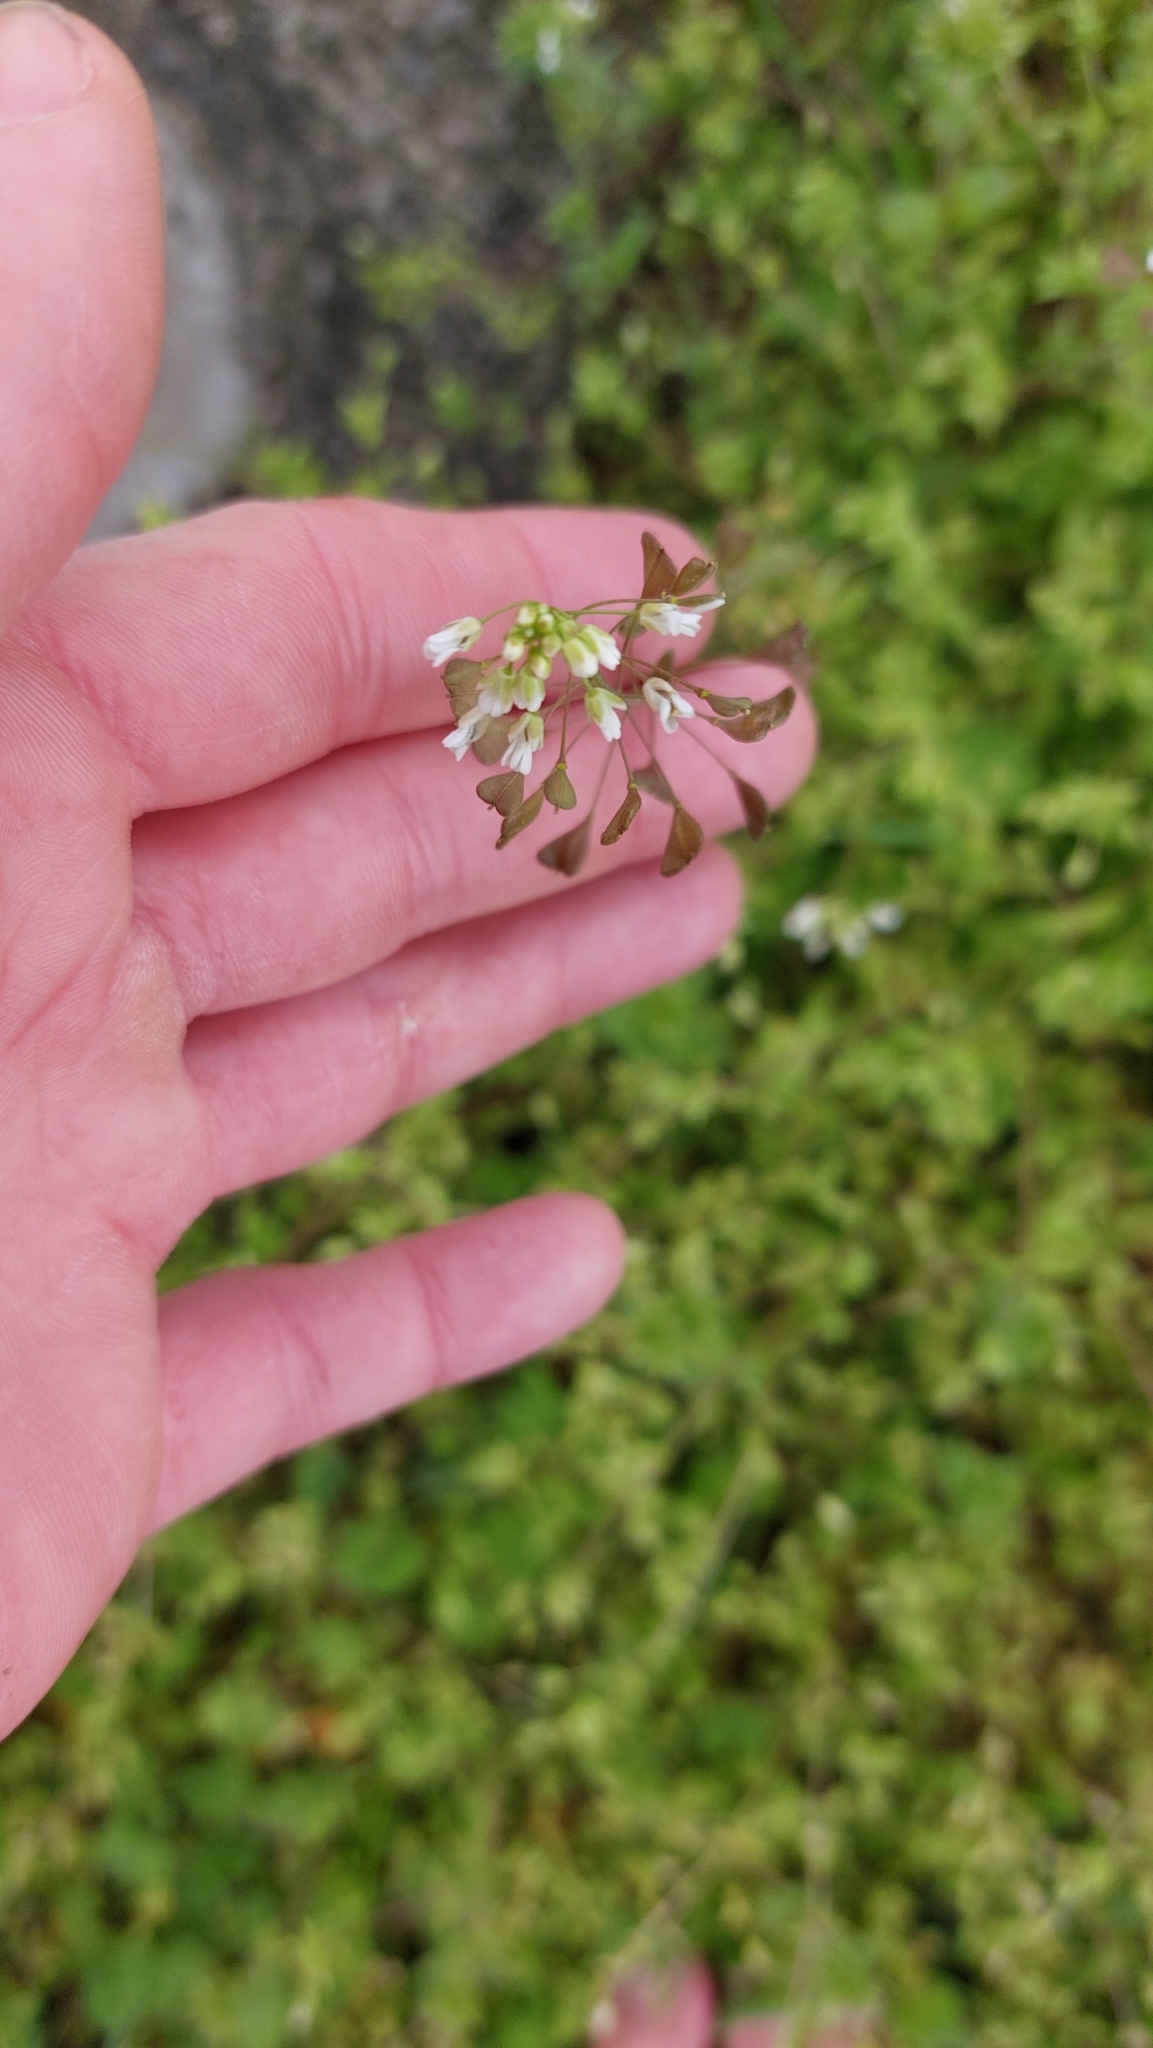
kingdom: Plantae
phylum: Tracheophyta
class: Magnoliopsida
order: Brassicales
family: Brassicaceae
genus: Capsella
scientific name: Capsella bursa-pastoris
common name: Shepherd's purse
